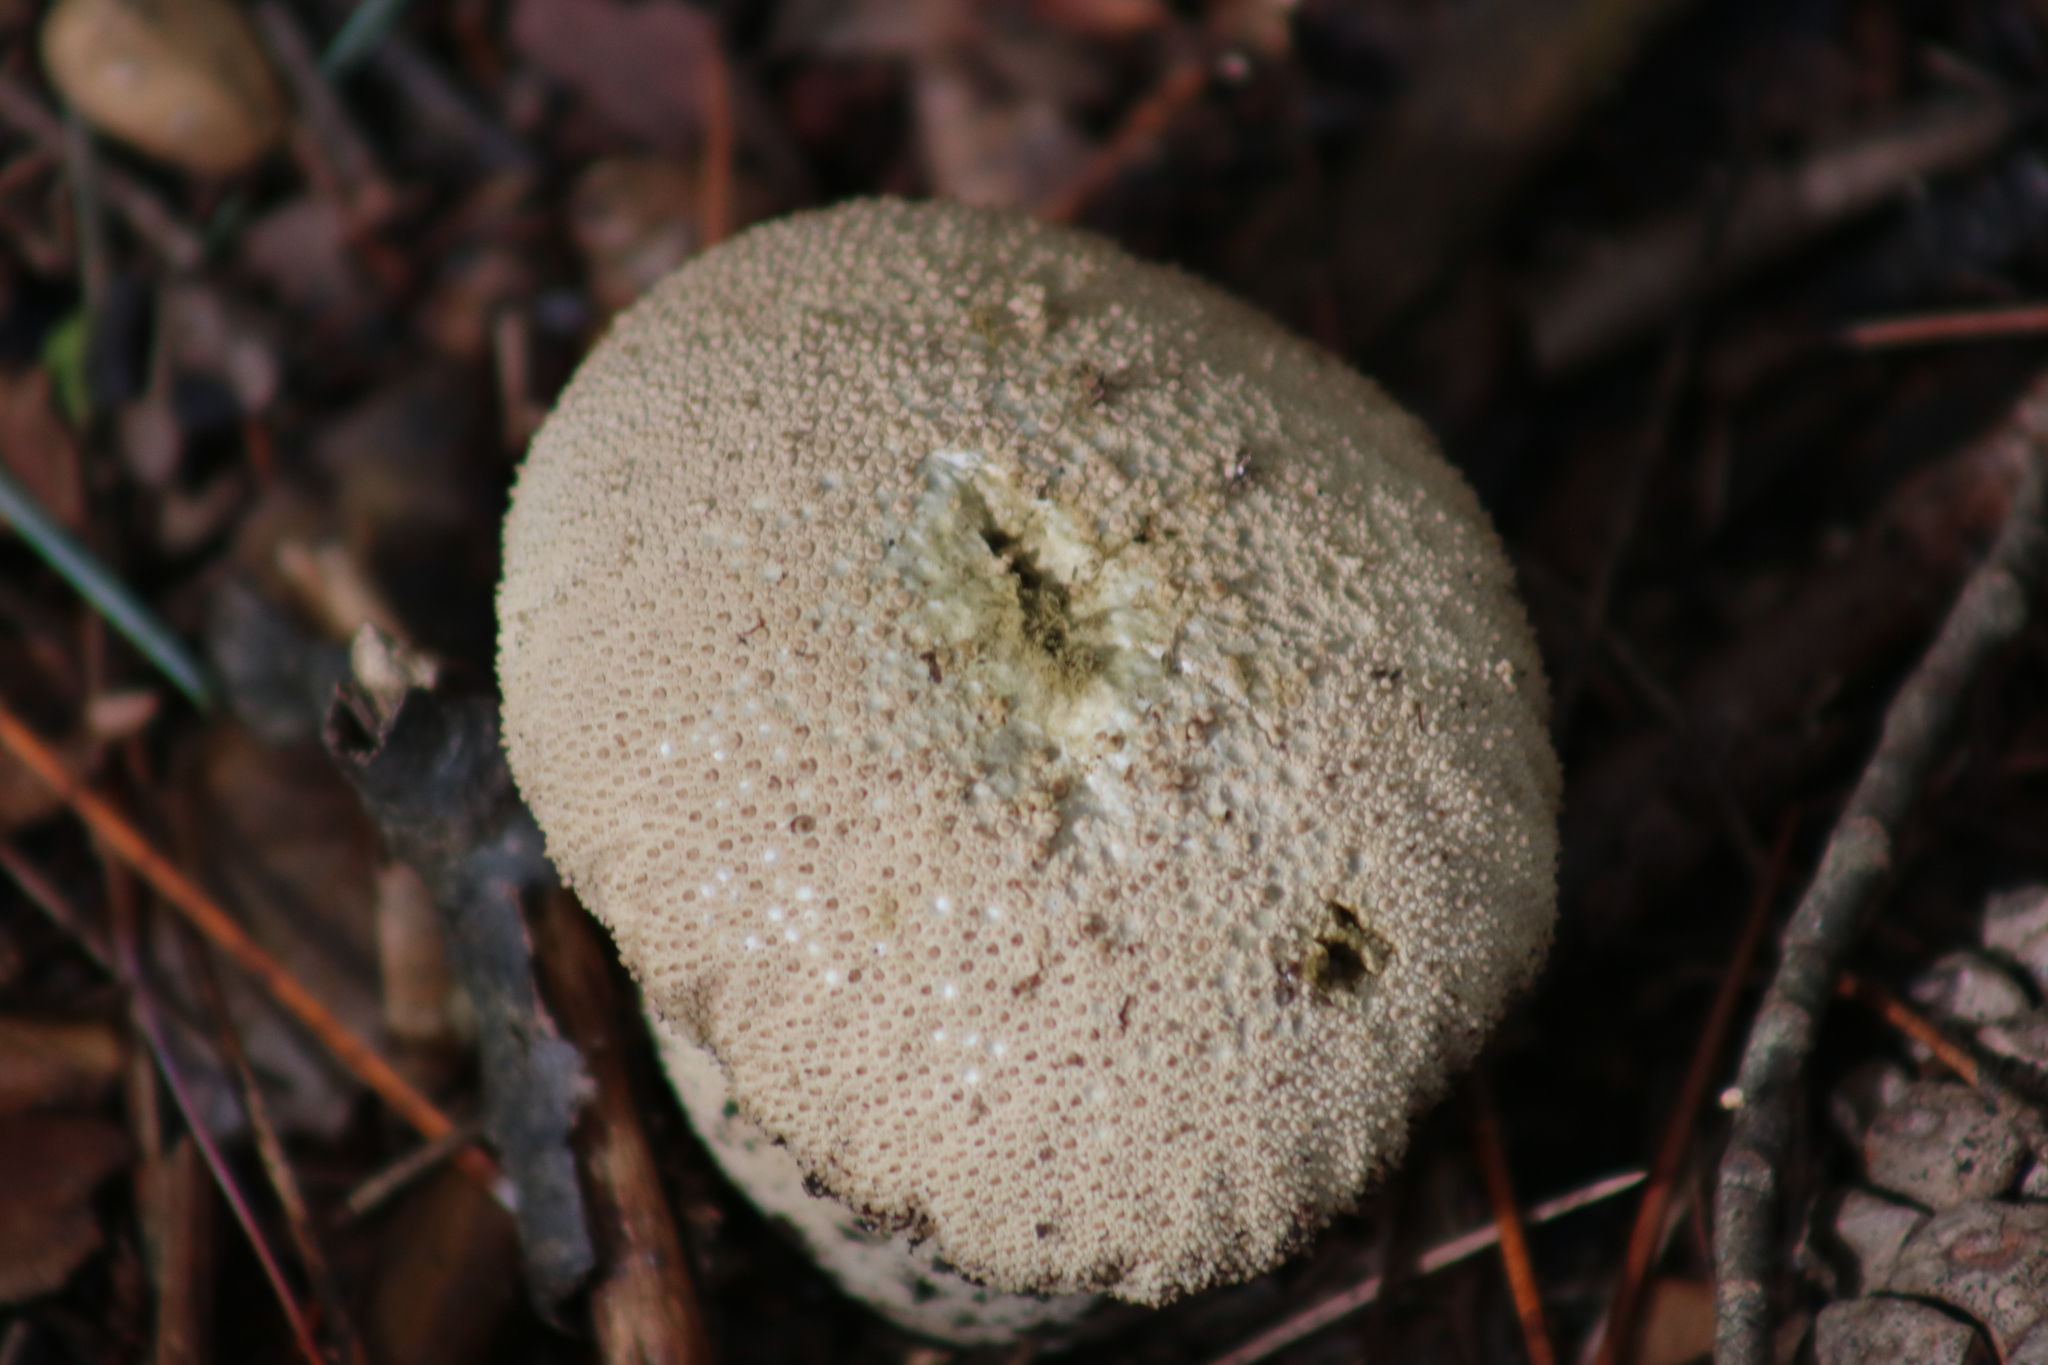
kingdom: Fungi
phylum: Basidiomycota
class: Agaricomycetes
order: Agaricales
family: Lycoperdaceae
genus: Lycoperdon
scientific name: Lycoperdon perlatum
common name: Common puffball
